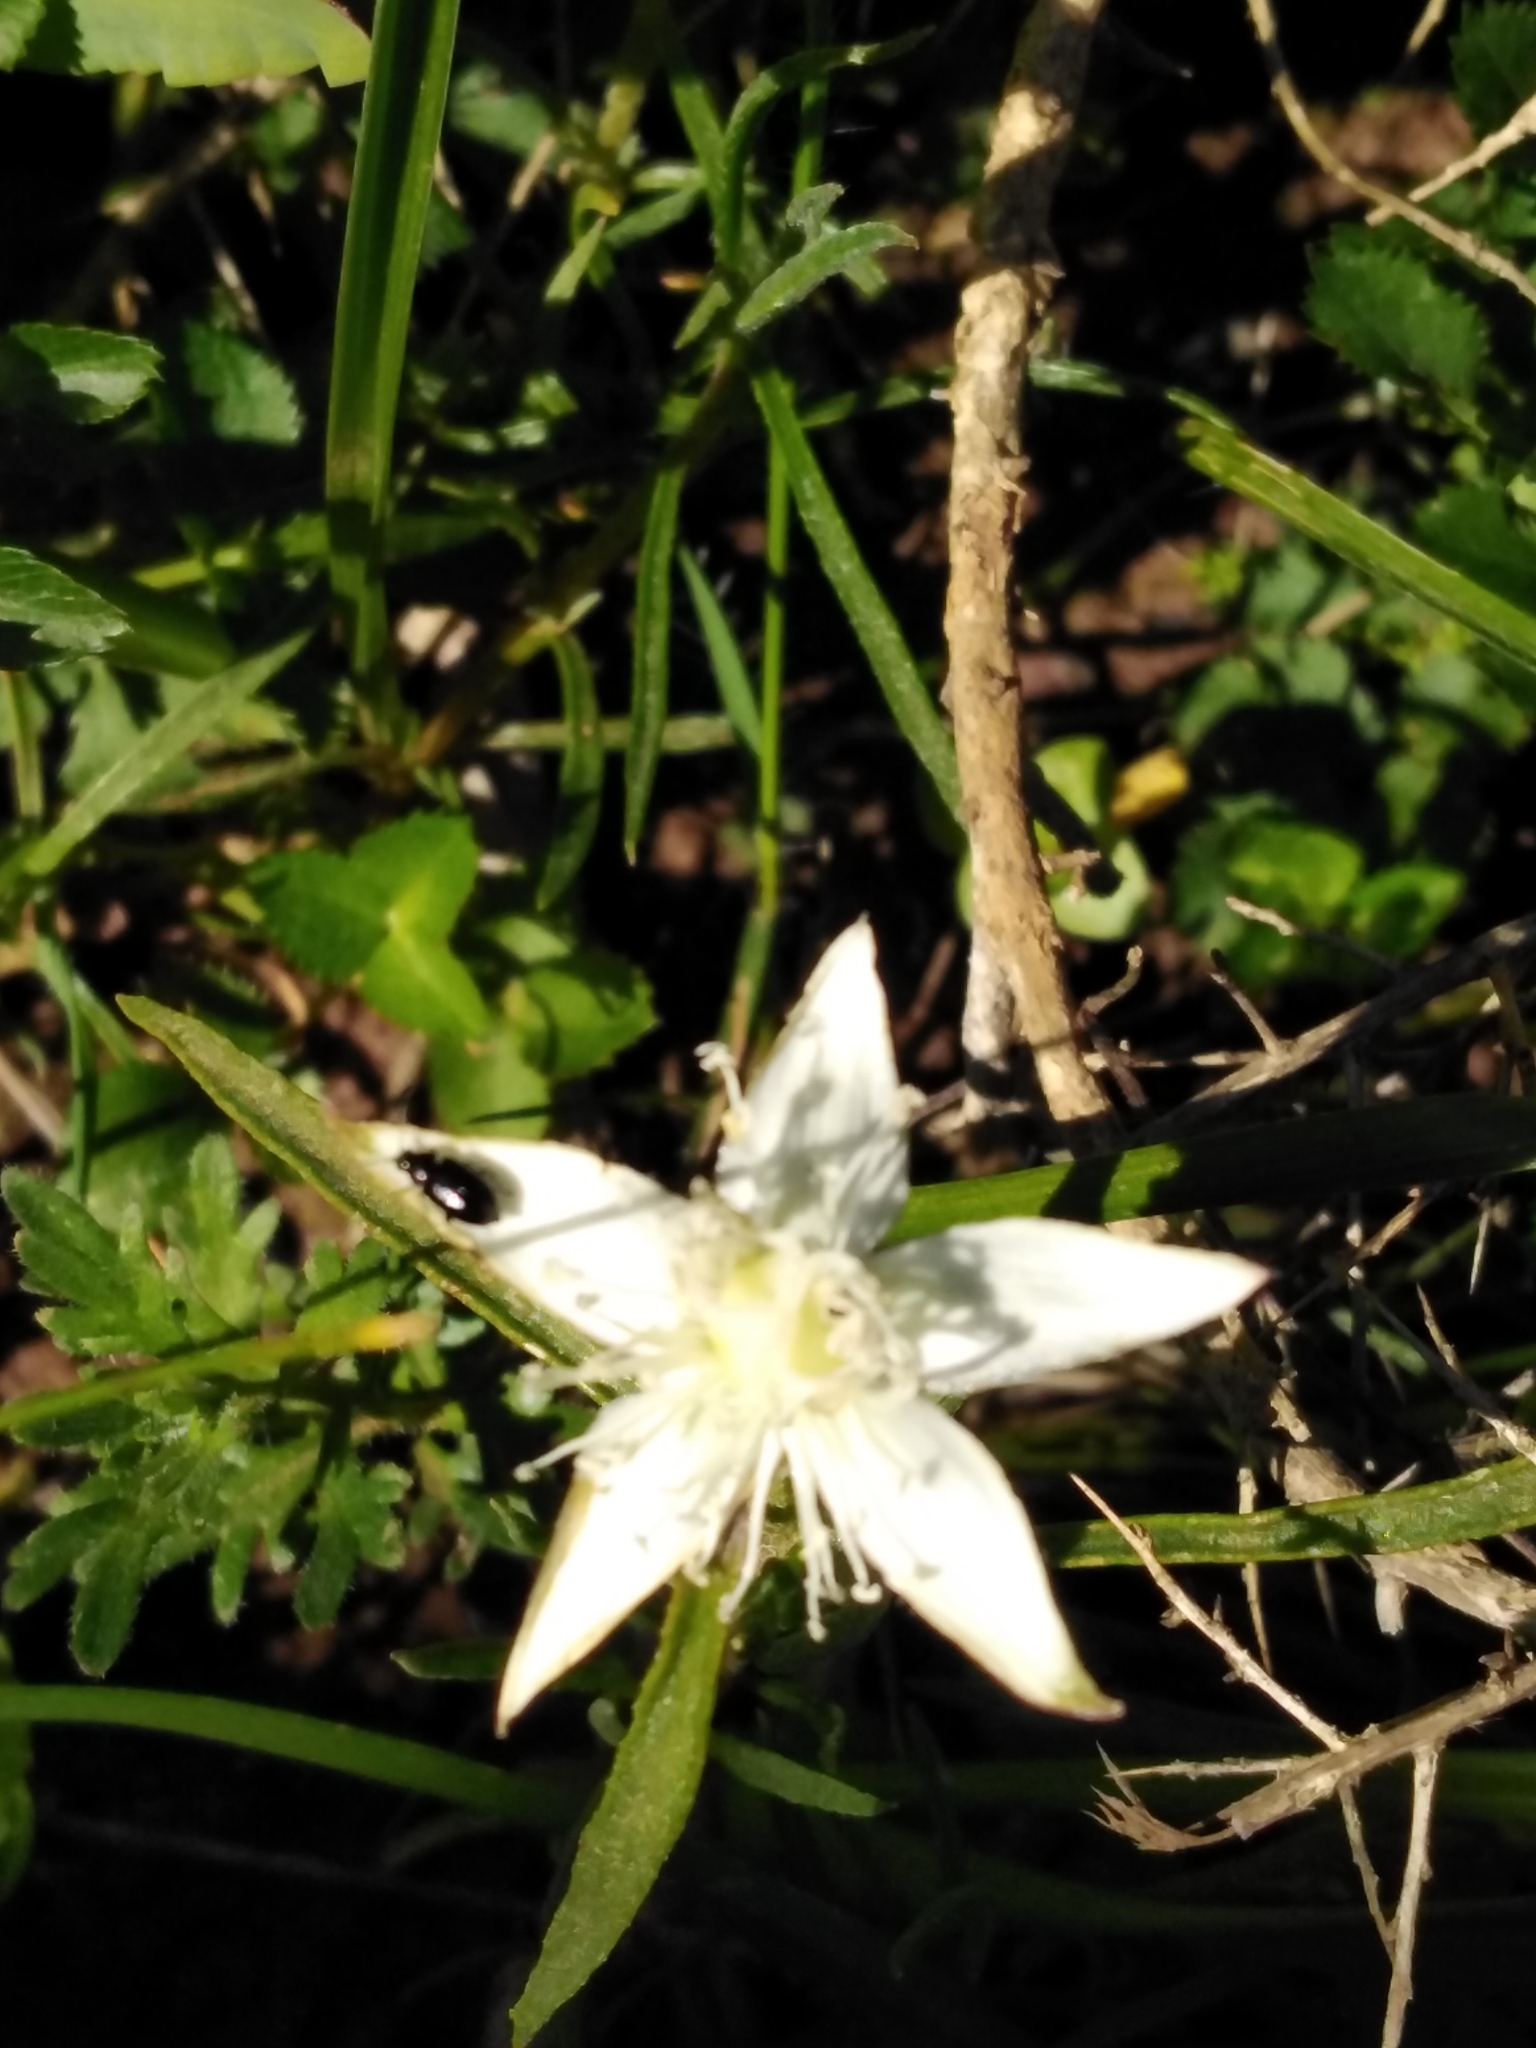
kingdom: Plantae
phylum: Tracheophyta
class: Magnoliopsida
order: Caryophyllales
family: Aizoaceae
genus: Aizoon
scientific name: Aizoon sarmentosum
